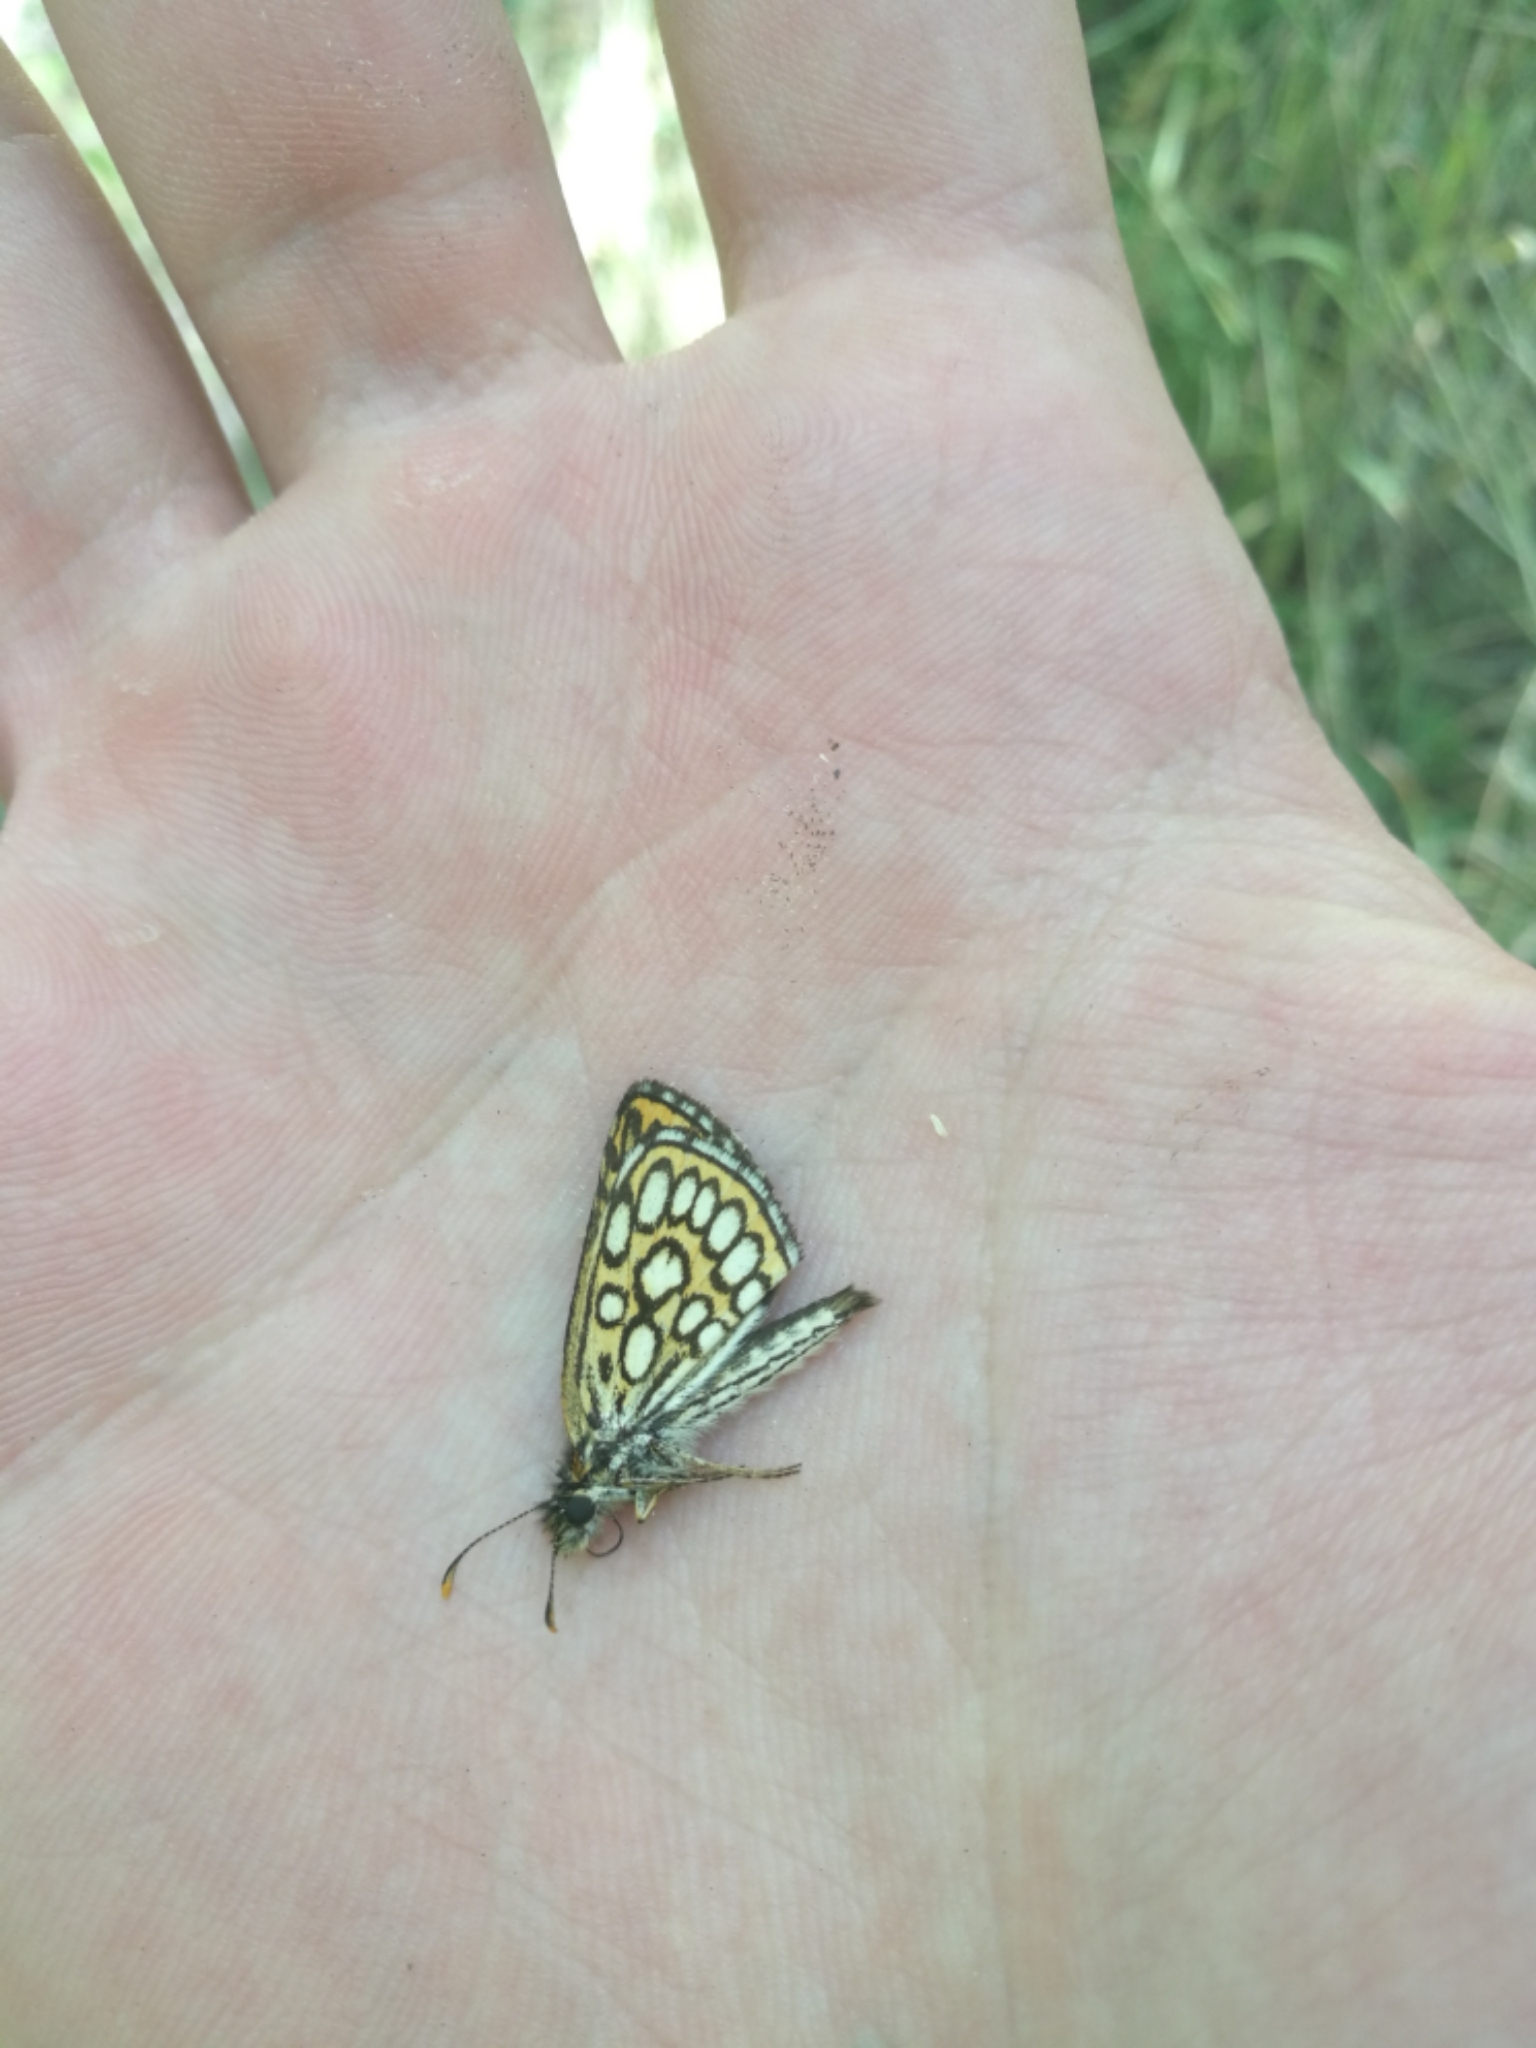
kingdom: Animalia
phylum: Arthropoda
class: Insecta
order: Lepidoptera
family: Hesperiidae
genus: Heteropterus
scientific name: Heteropterus morpheus
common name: Large chequered skipper
